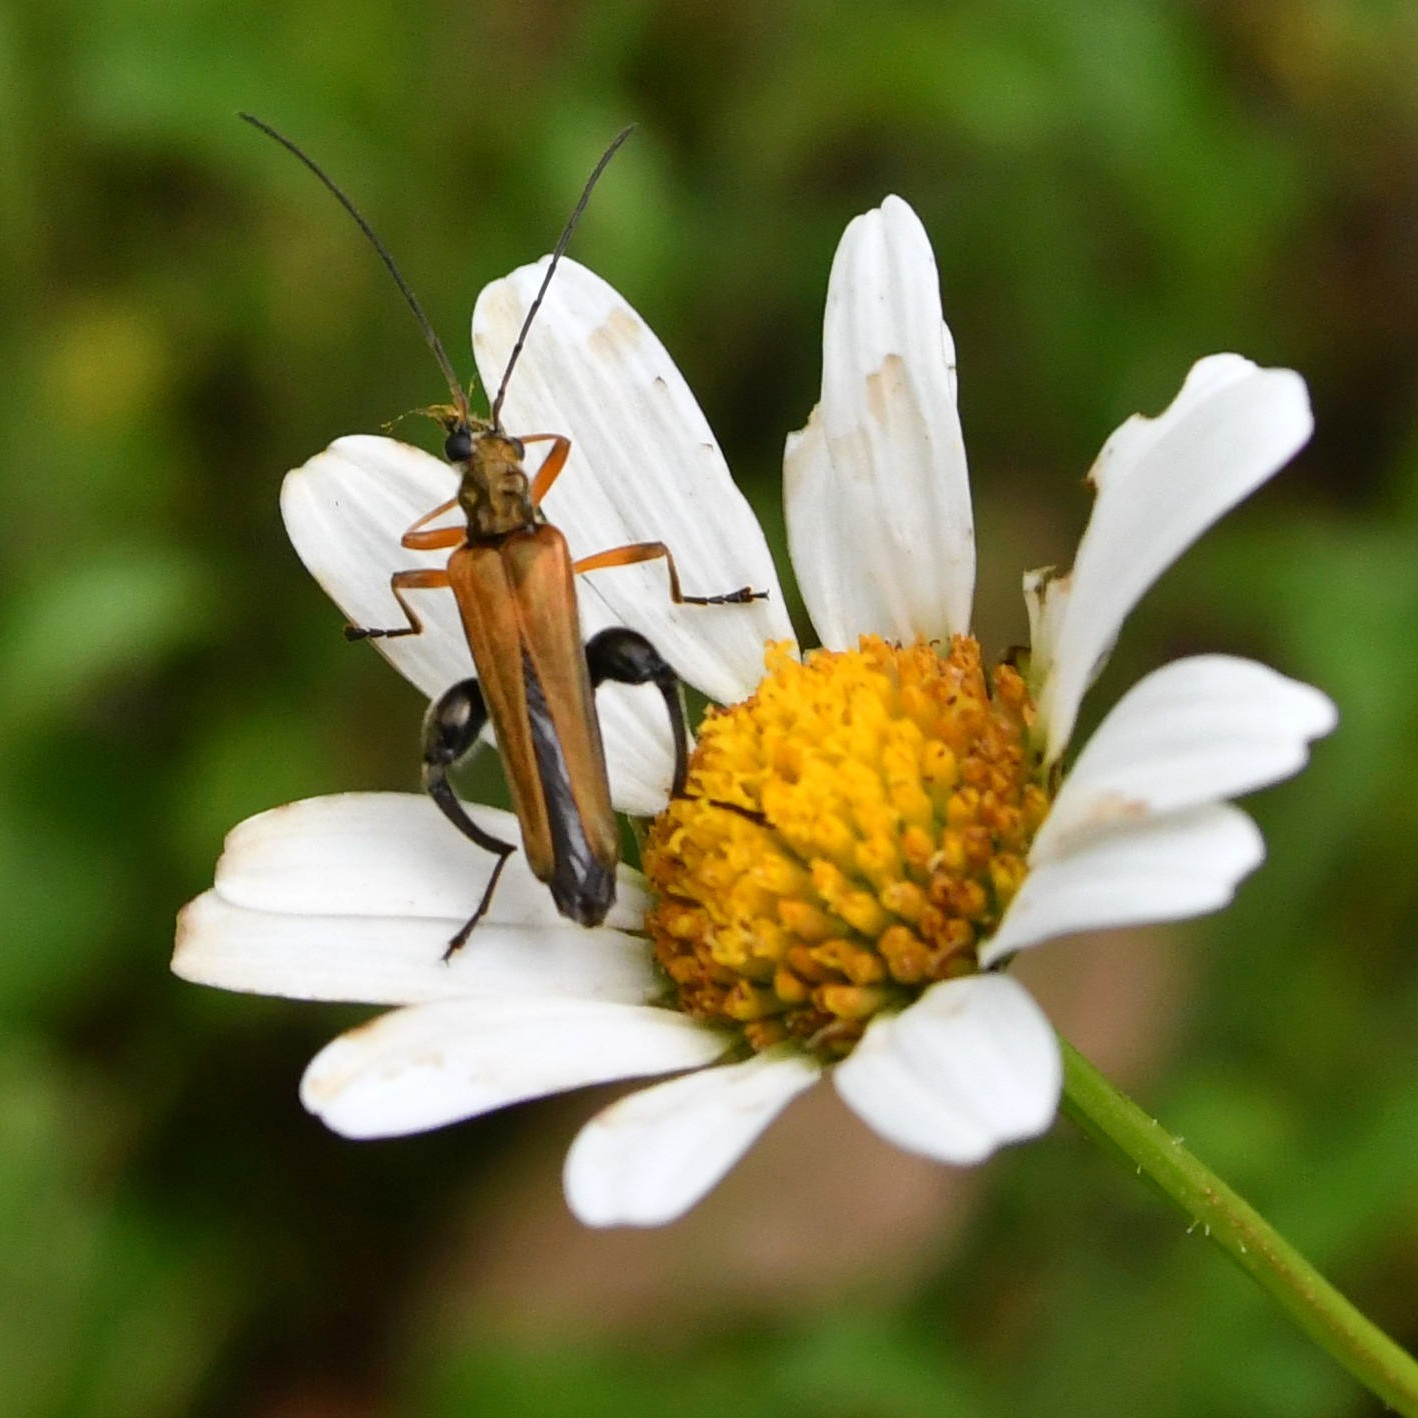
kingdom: Animalia
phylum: Arthropoda
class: Insecta
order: Coleoptera
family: Oedemeridae
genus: Oedemera
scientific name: Oedemera podagrariae
